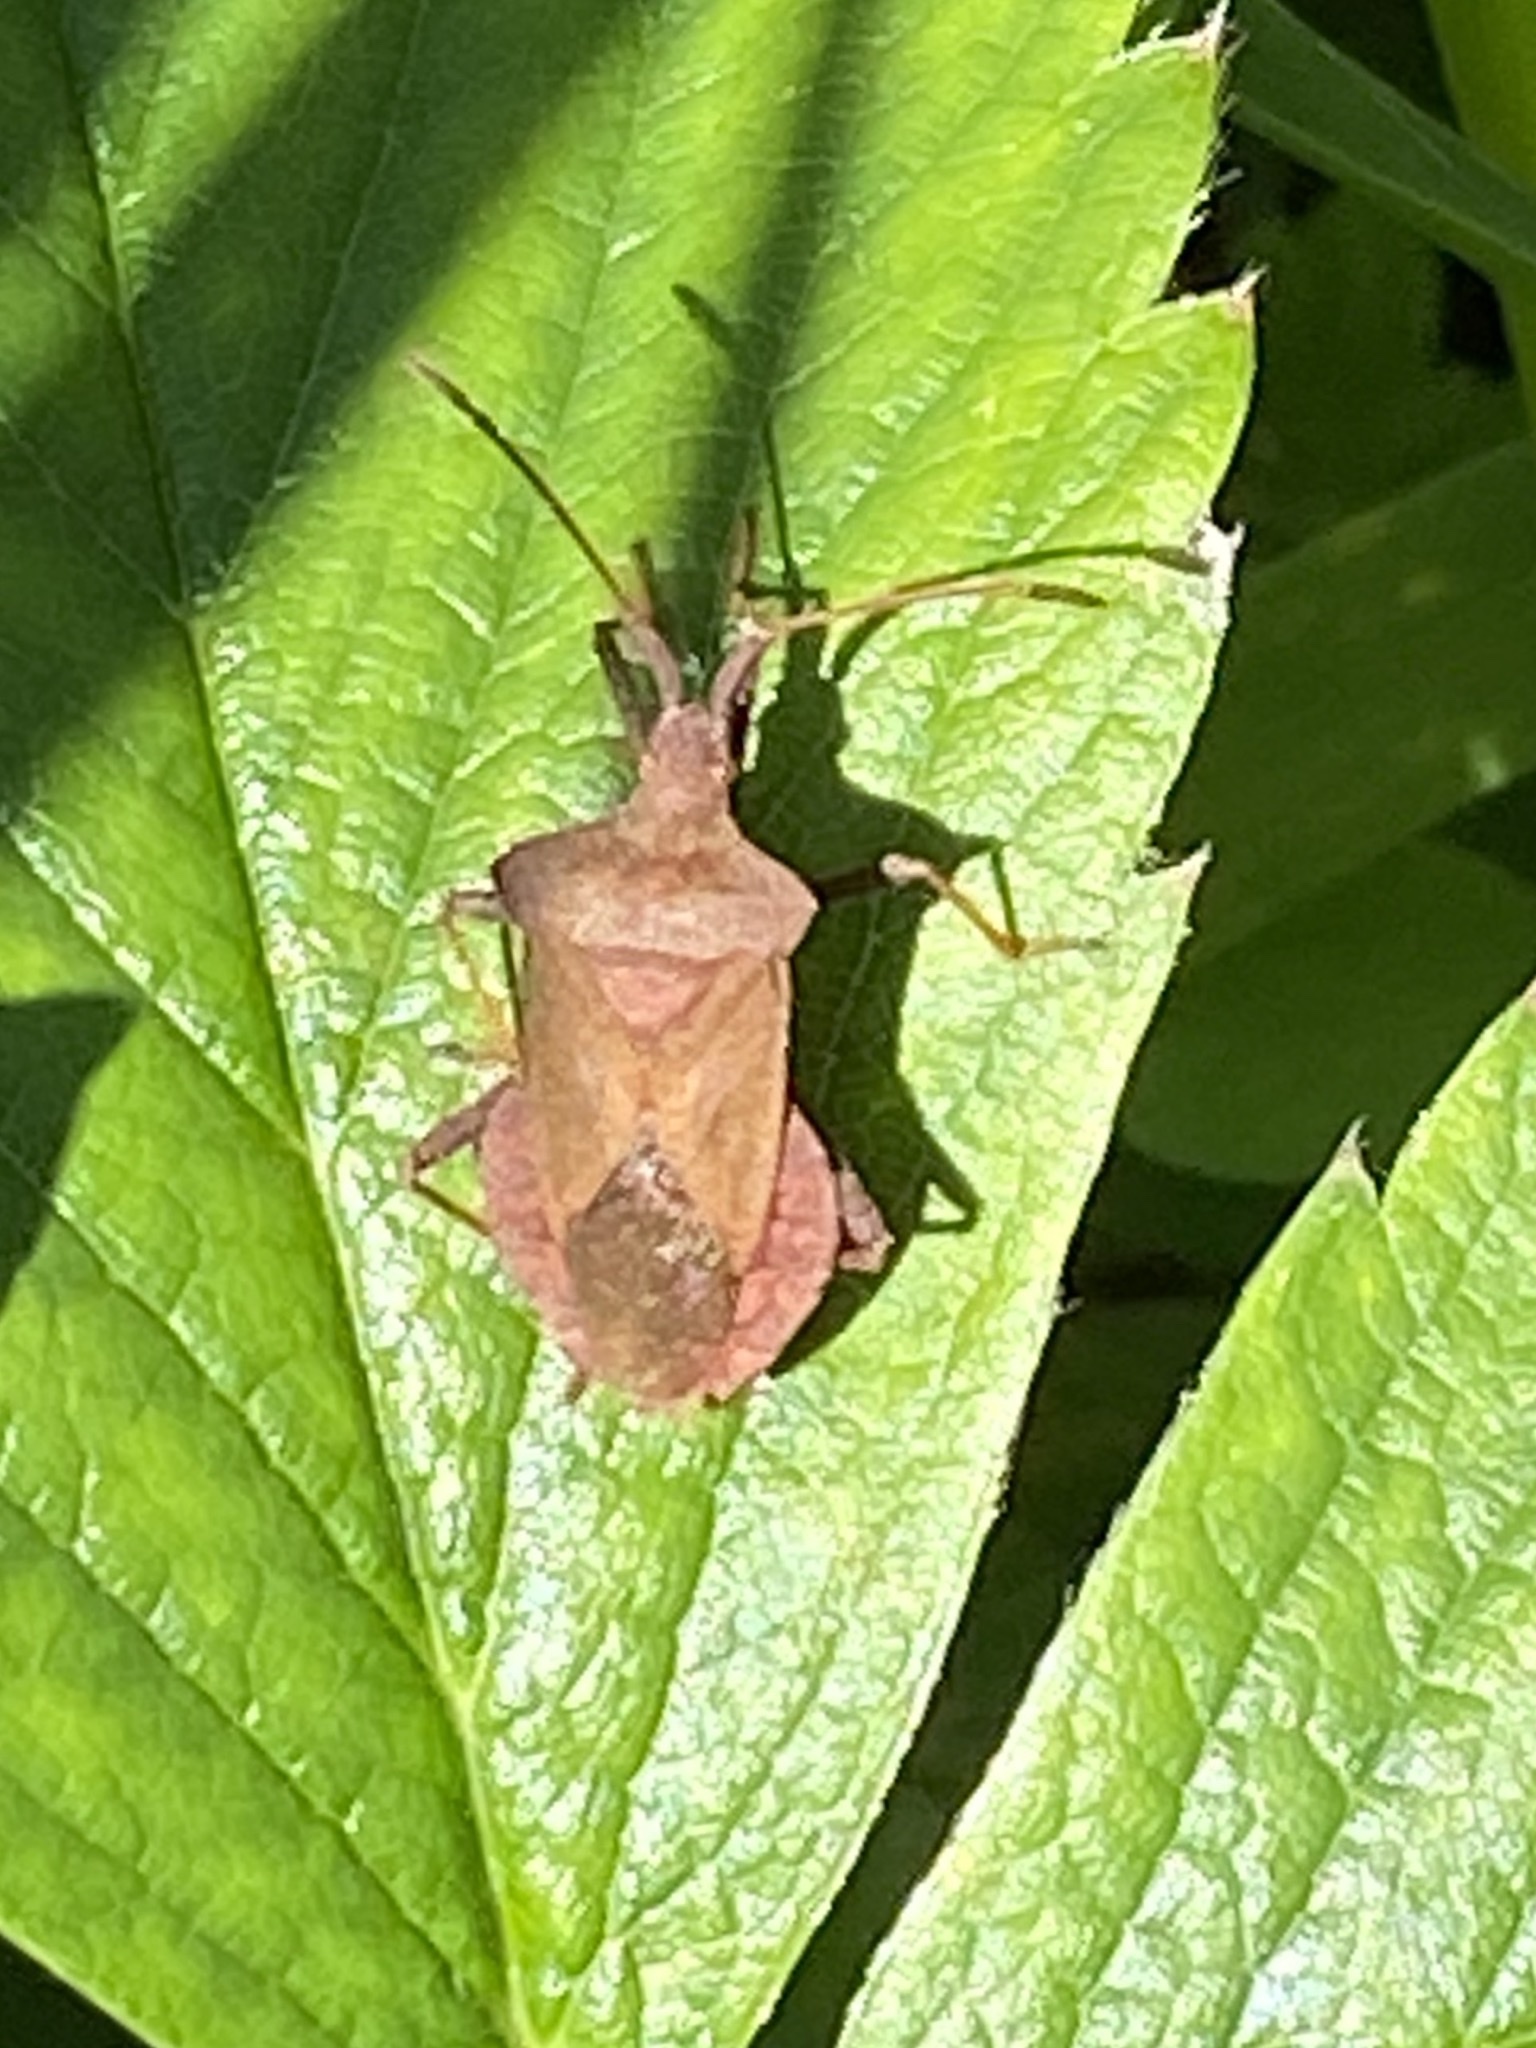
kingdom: Animalia
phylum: Arthropoda
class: Insecta
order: Hemiptera
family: Coreidae
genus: Coreus
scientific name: Coreus marginatus
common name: Dock bug
